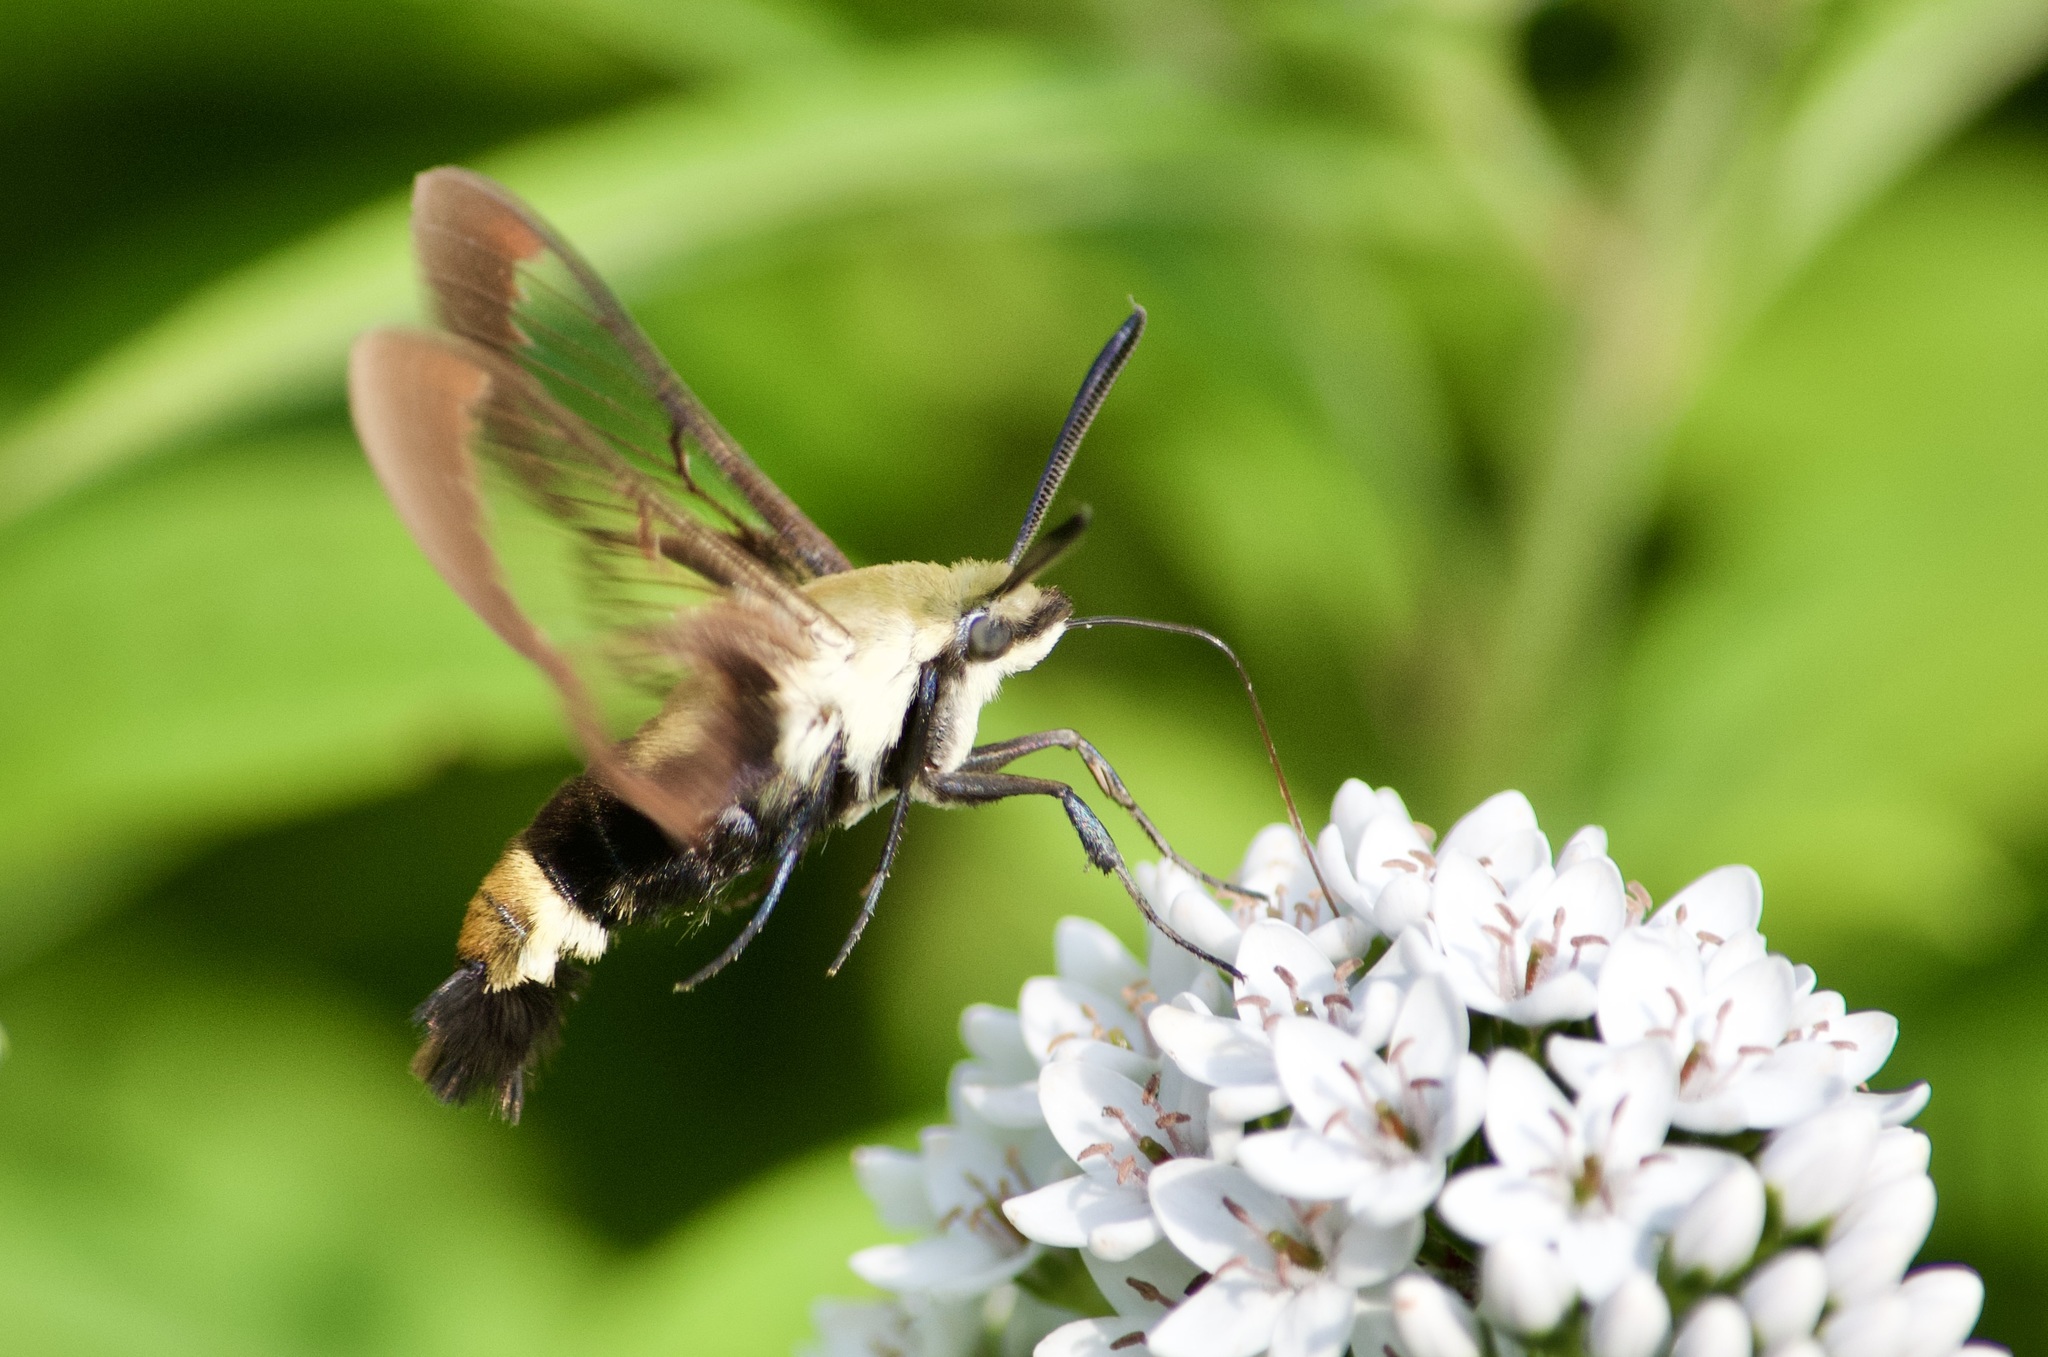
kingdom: Animalia
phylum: Arthropoda
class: Insecta
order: Lepidoptera
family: Sphingidae
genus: Hemaris
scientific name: Hemaris diffinis
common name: Bumblebee moth
